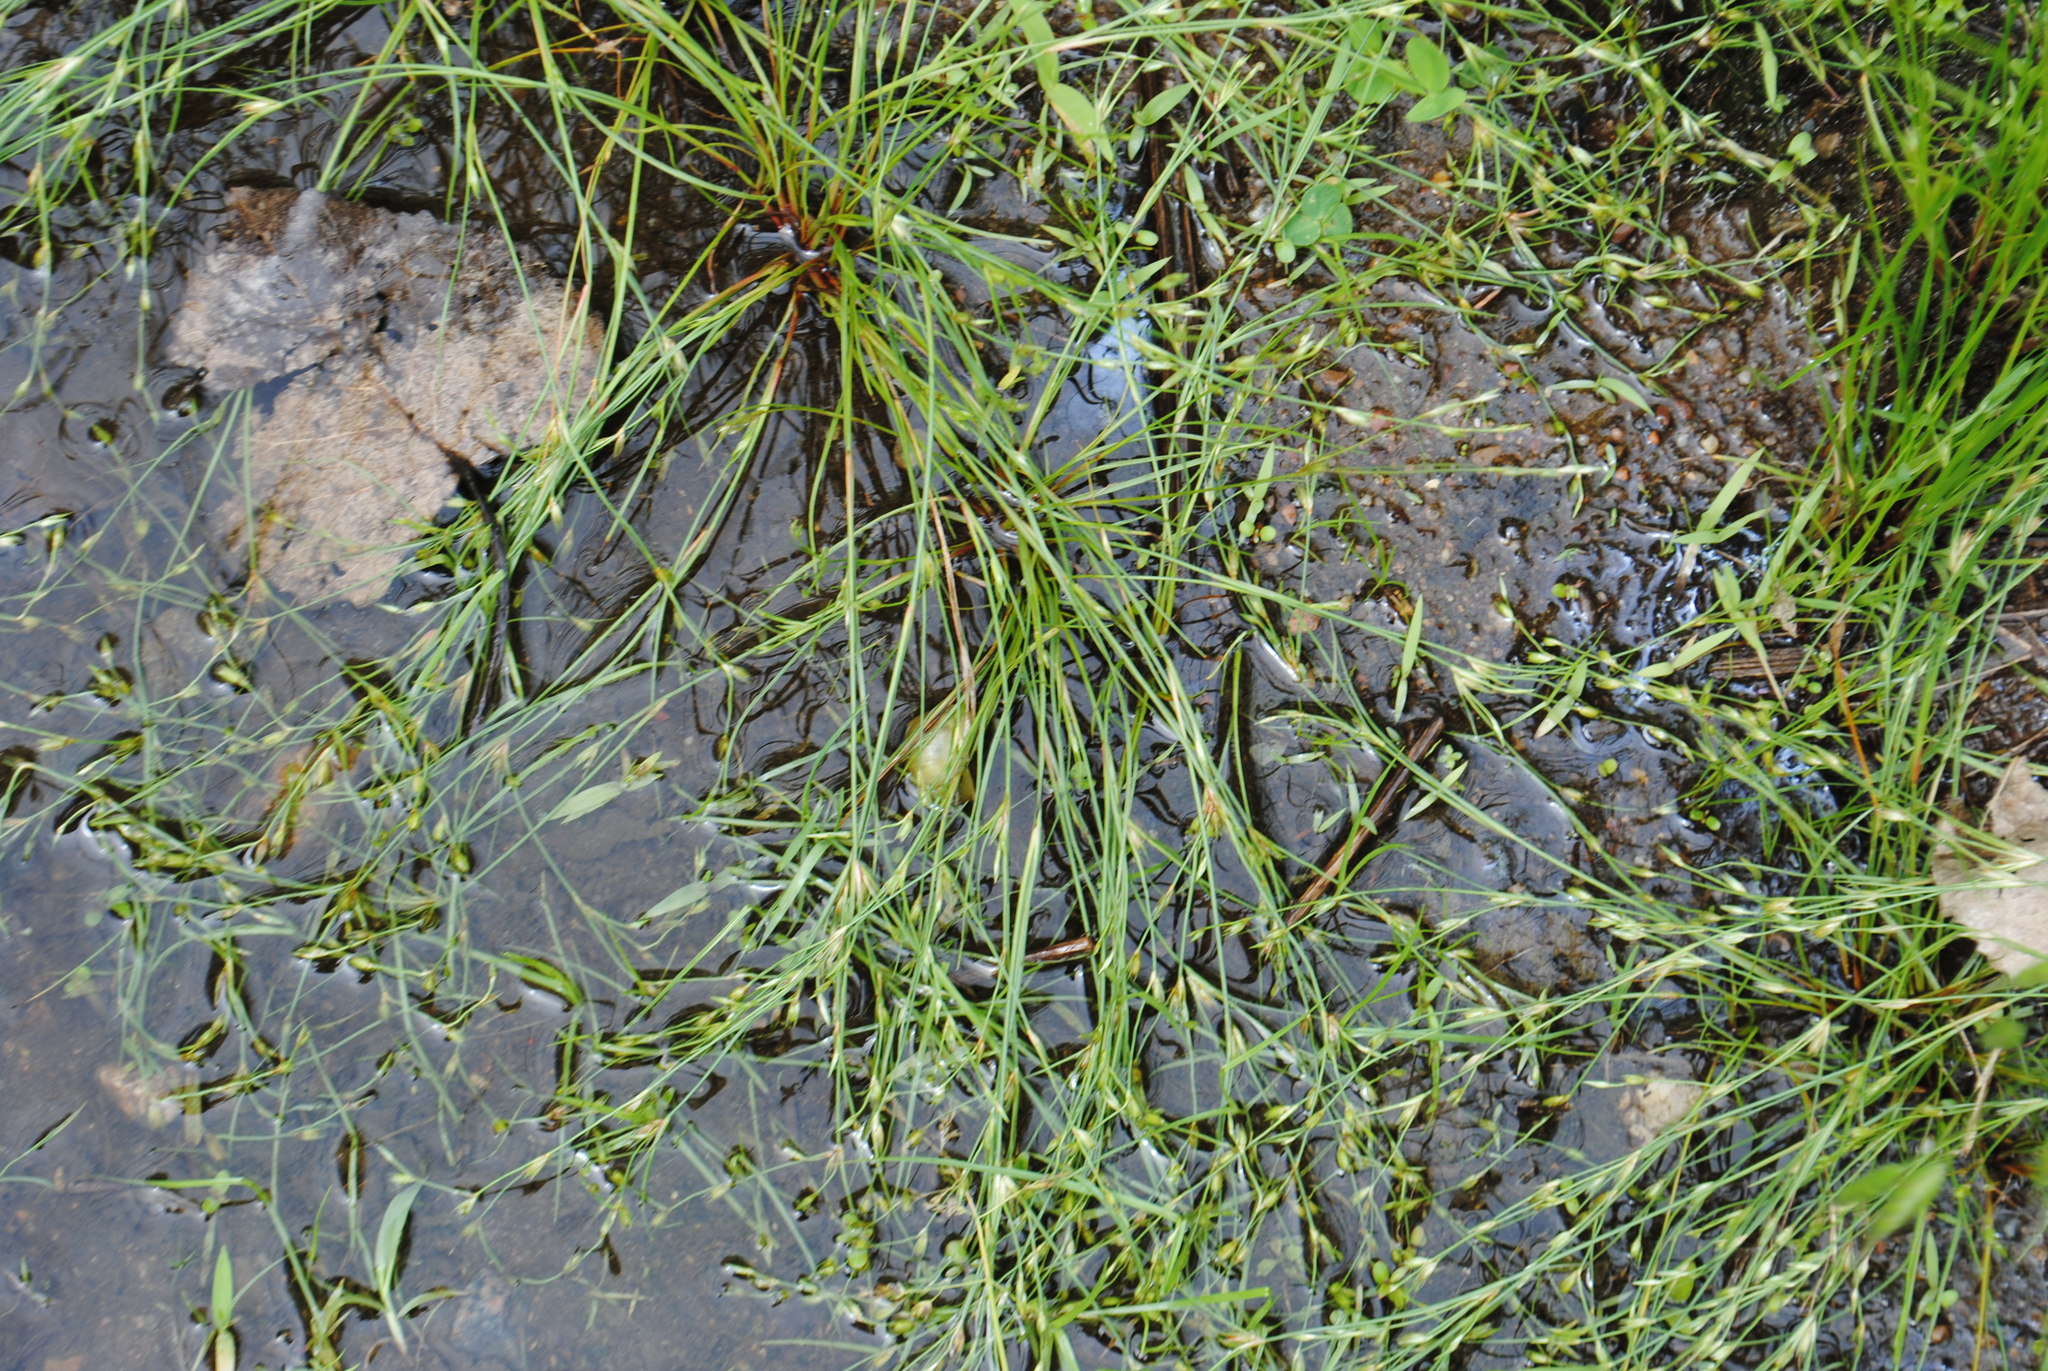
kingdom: Plantae
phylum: Tracheophyta
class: Liliopsida
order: Poales
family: Juncaceae
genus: Juncus
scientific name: Juncus bufonius
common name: Toad rush
